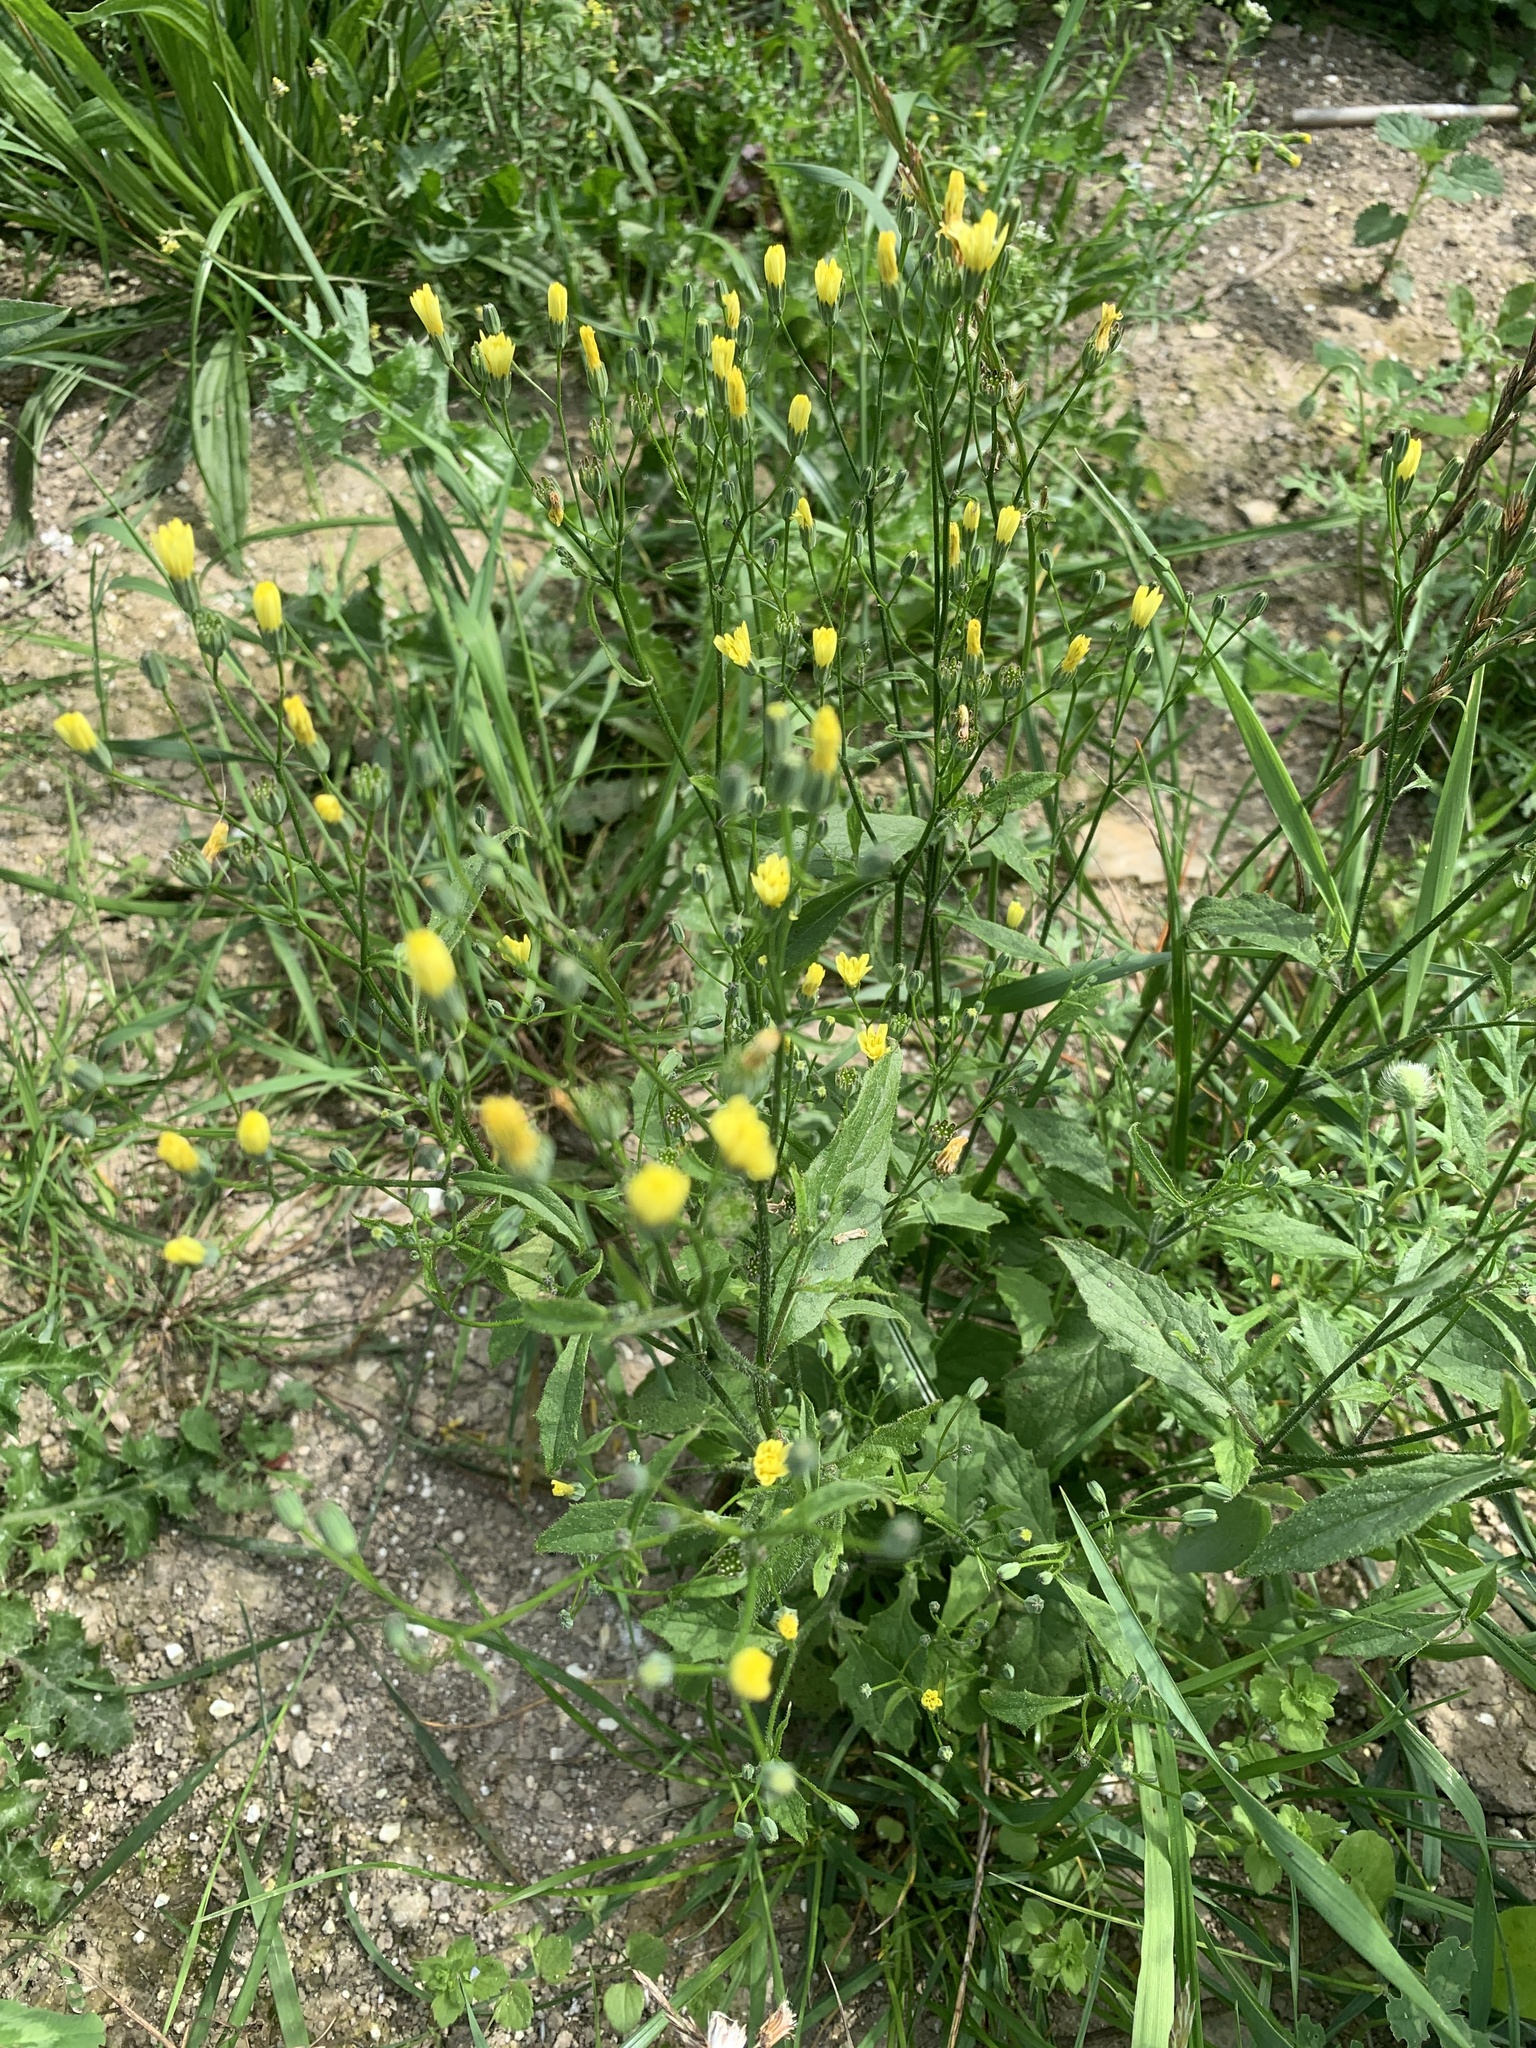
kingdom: Plantae
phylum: Tracheophyta
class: Magnoliopsida
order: Asterales
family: Asteraceae
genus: Lapsana
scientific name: Lapsana communis
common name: Nipplewort
